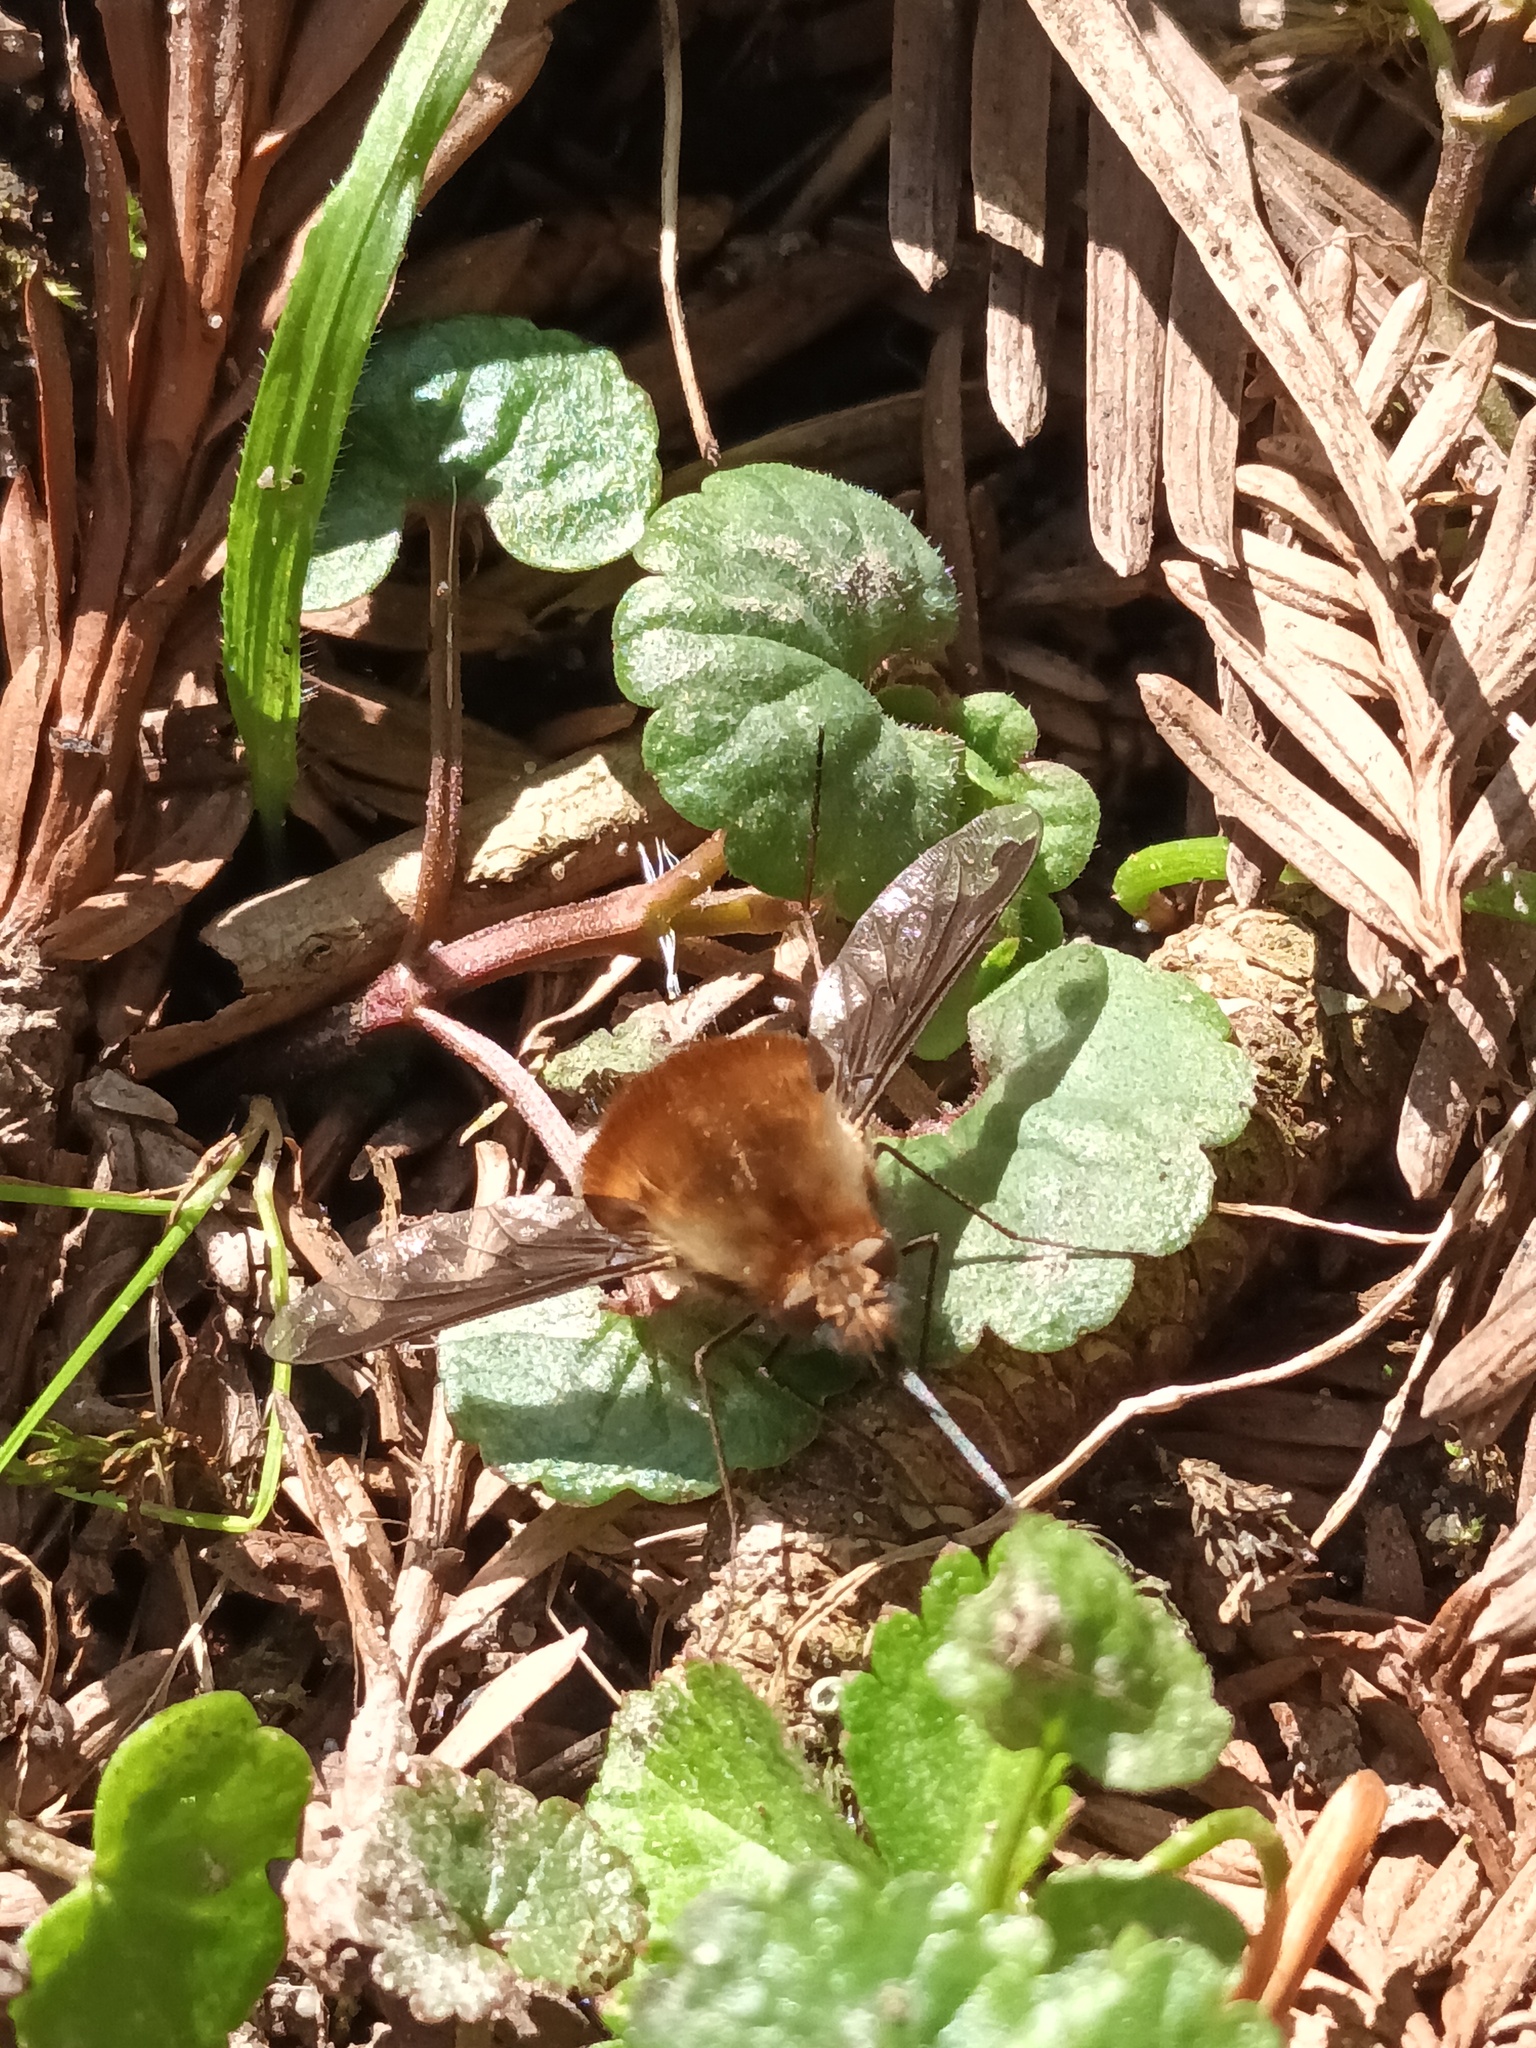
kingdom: Animalia
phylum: Arthropoda
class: Insecta
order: Diptera
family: Bombyliidae
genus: Bombylius
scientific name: Bombylius major
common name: Bee fly
